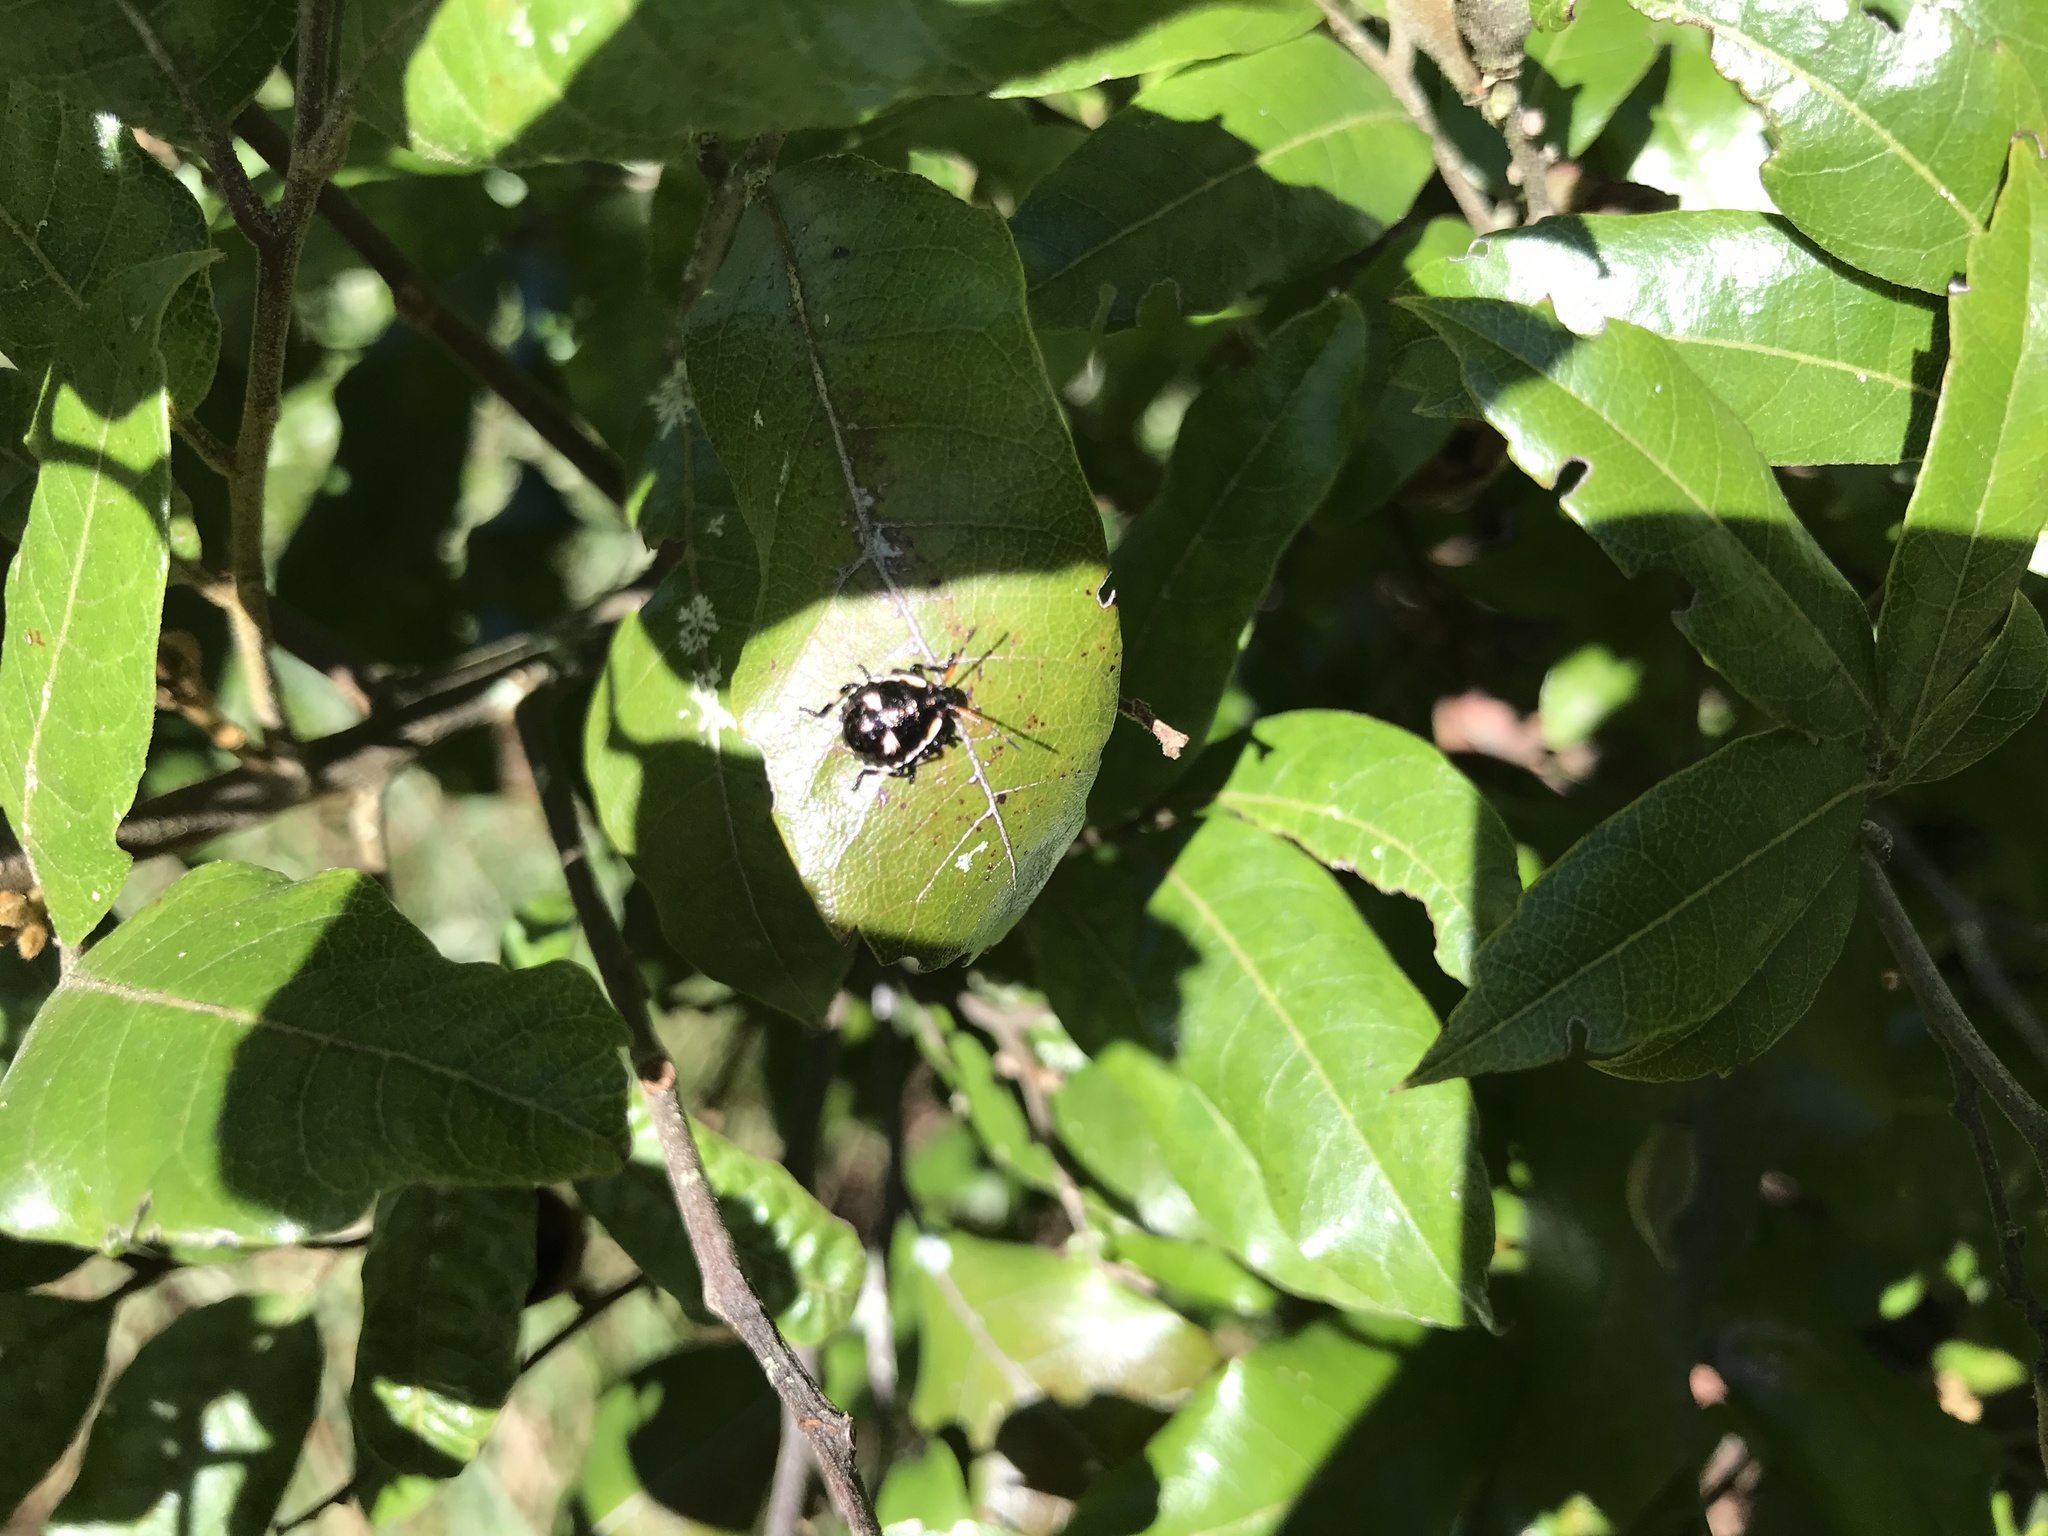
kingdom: Animalia
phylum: Arthropoda
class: Insecta
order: Hemiptera
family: Pentatomidae
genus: Cermatulus
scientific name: Cermatulus nasalis
